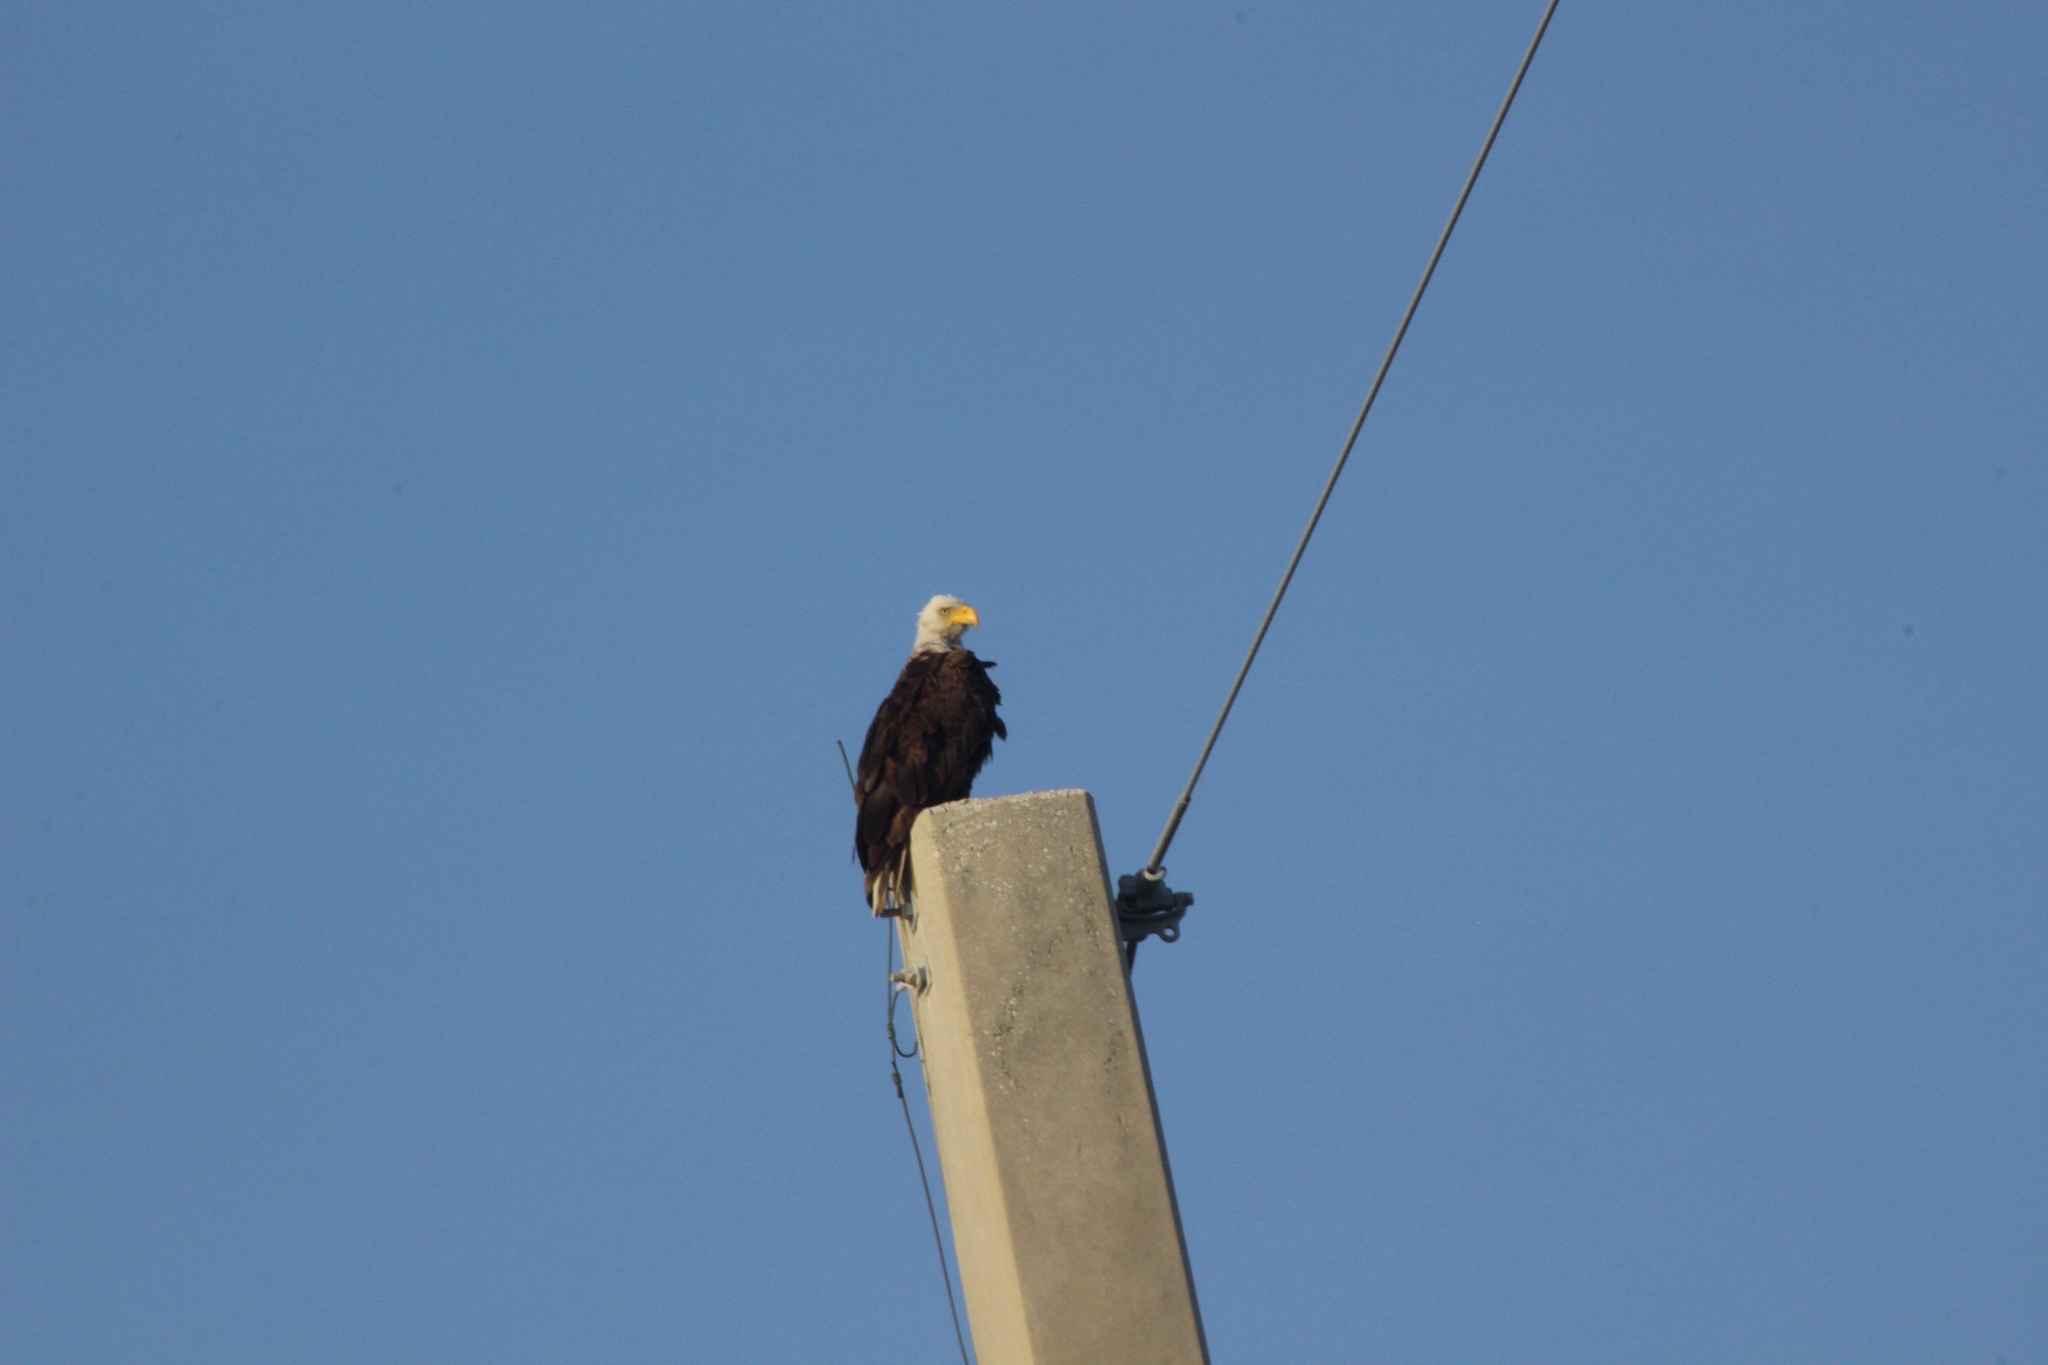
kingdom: Animalia
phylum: Chordata
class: Aves
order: Accipitriformes
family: Accipitridae
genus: Haliaeetus
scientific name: Haliaeetus leucocephalus
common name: Bald eagle
